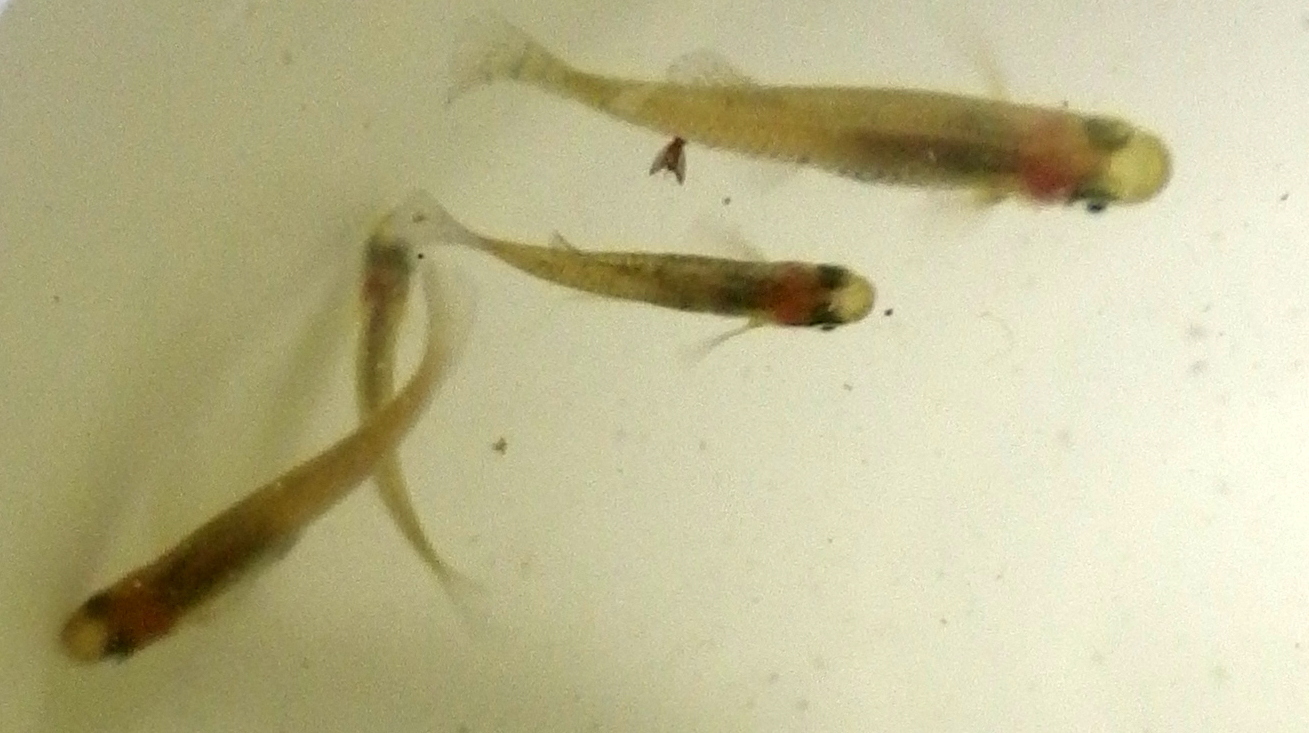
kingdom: Animalia
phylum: Chordata
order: Cyprinodontiformes
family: Poeciliidae
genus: Gambusia
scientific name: Gambusia holbrooki
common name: Eastern mosquitofish
